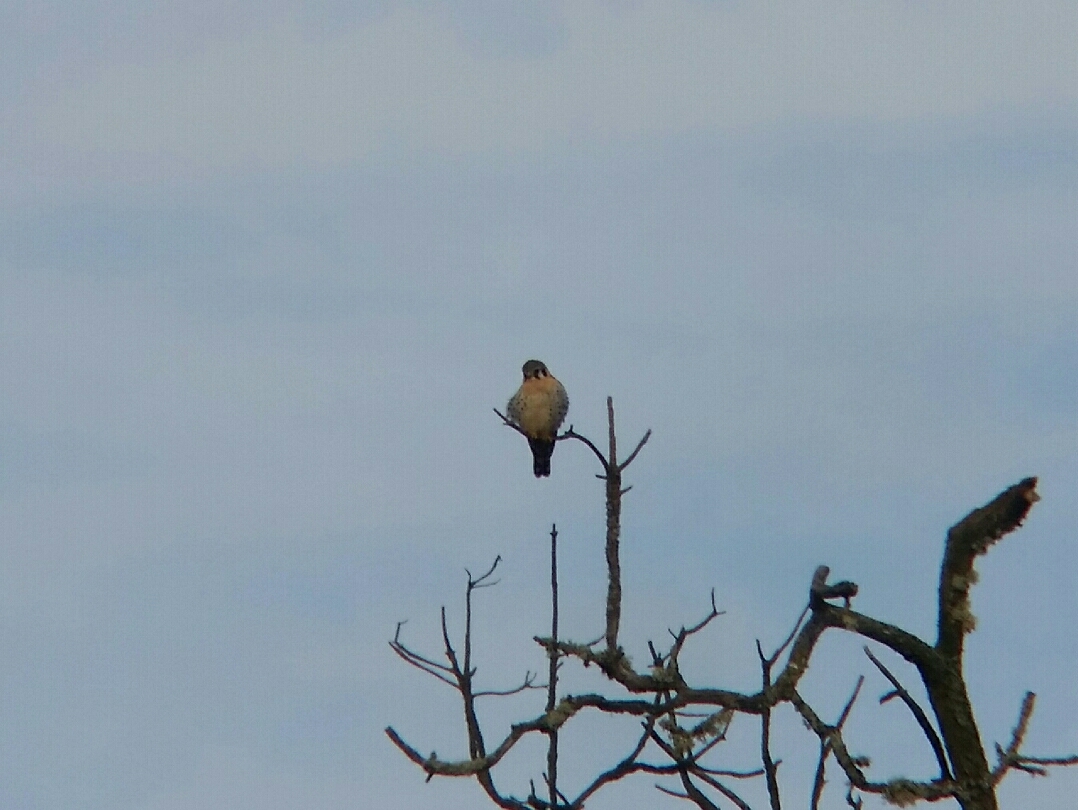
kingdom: Animalia
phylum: Chordata
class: Aves
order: Falconiformes
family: Falconidae
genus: Falco
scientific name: Falco sparverius
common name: American kestrel
